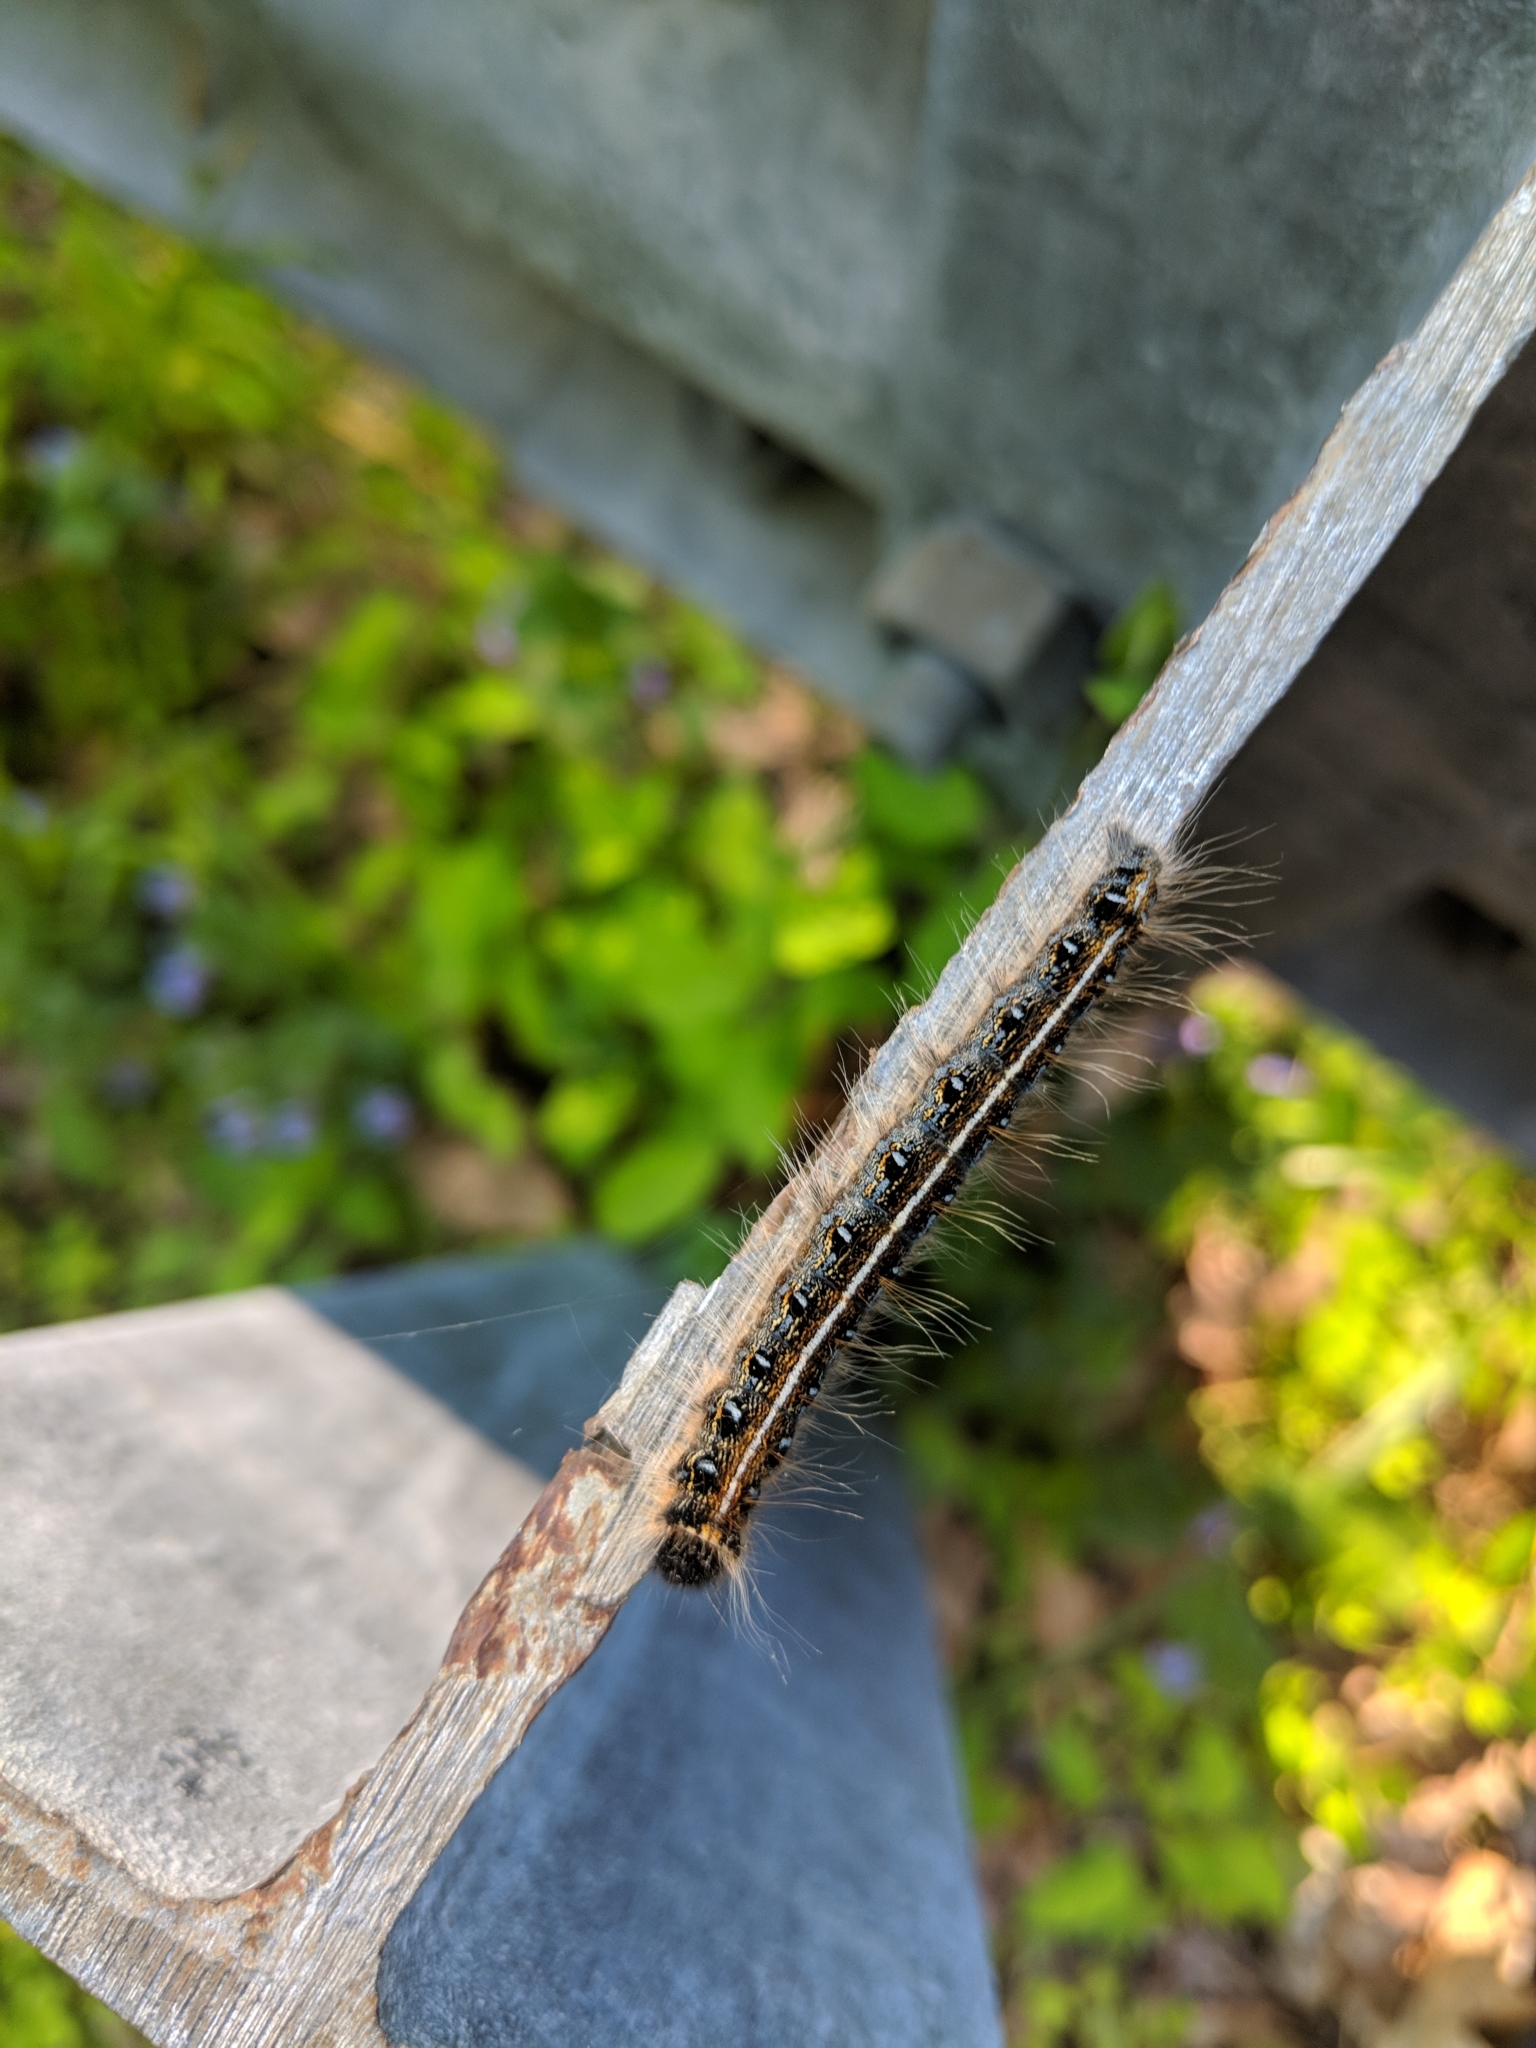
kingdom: Animalia
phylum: Arthropoda
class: Insecta
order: Lepidoptera
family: Lasiocampidae
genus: Malacosoma
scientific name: Malacosoma americana
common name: Eastern tent caterpillar moth
